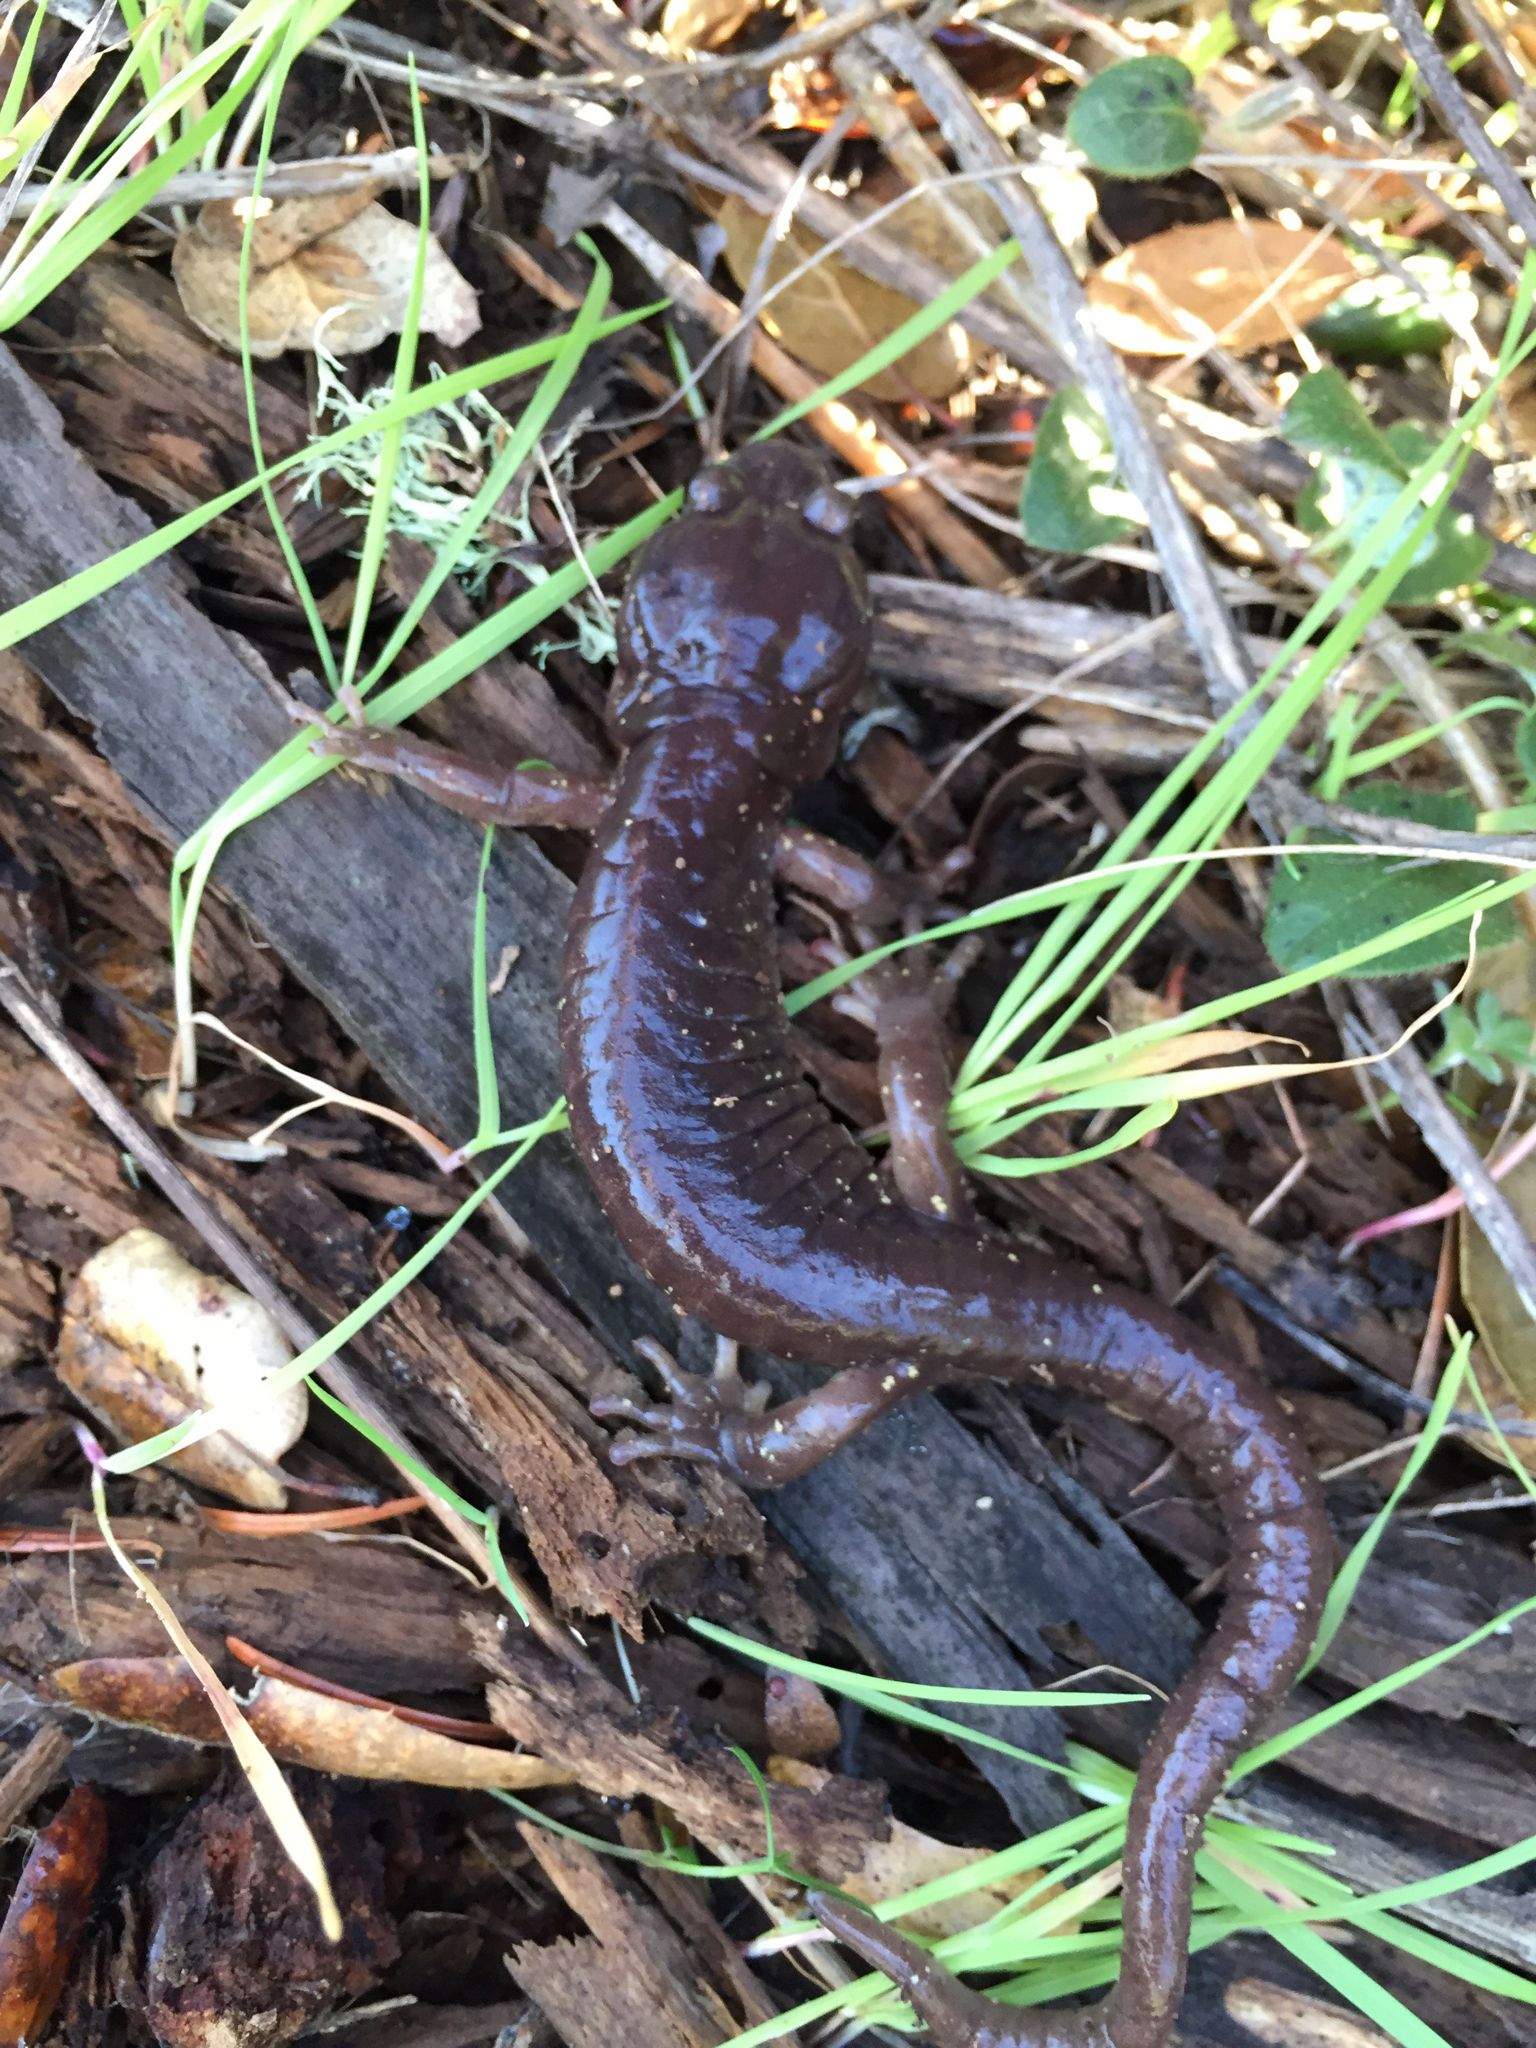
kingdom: Animalia
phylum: Chordata
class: Amphibia
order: Caudata
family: Plethodontidae
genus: Aneides
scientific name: Aneides lugubris
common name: Arboreal salamander
